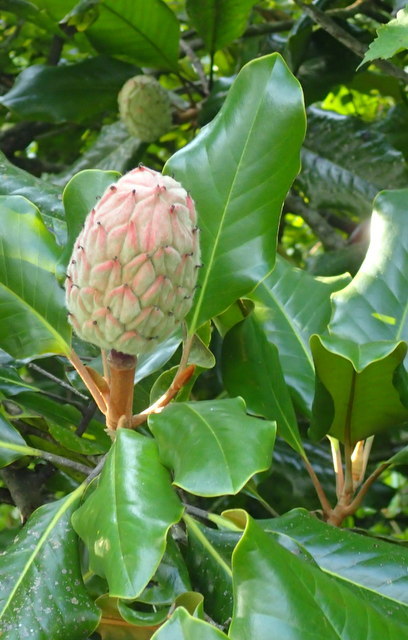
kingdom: Plantae
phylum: Tracheophyta
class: Magnoliopsida
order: Magnoliales
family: Magnoliaceae
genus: Magnolia
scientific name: Magnolia grandiflora
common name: Southern magnolia
